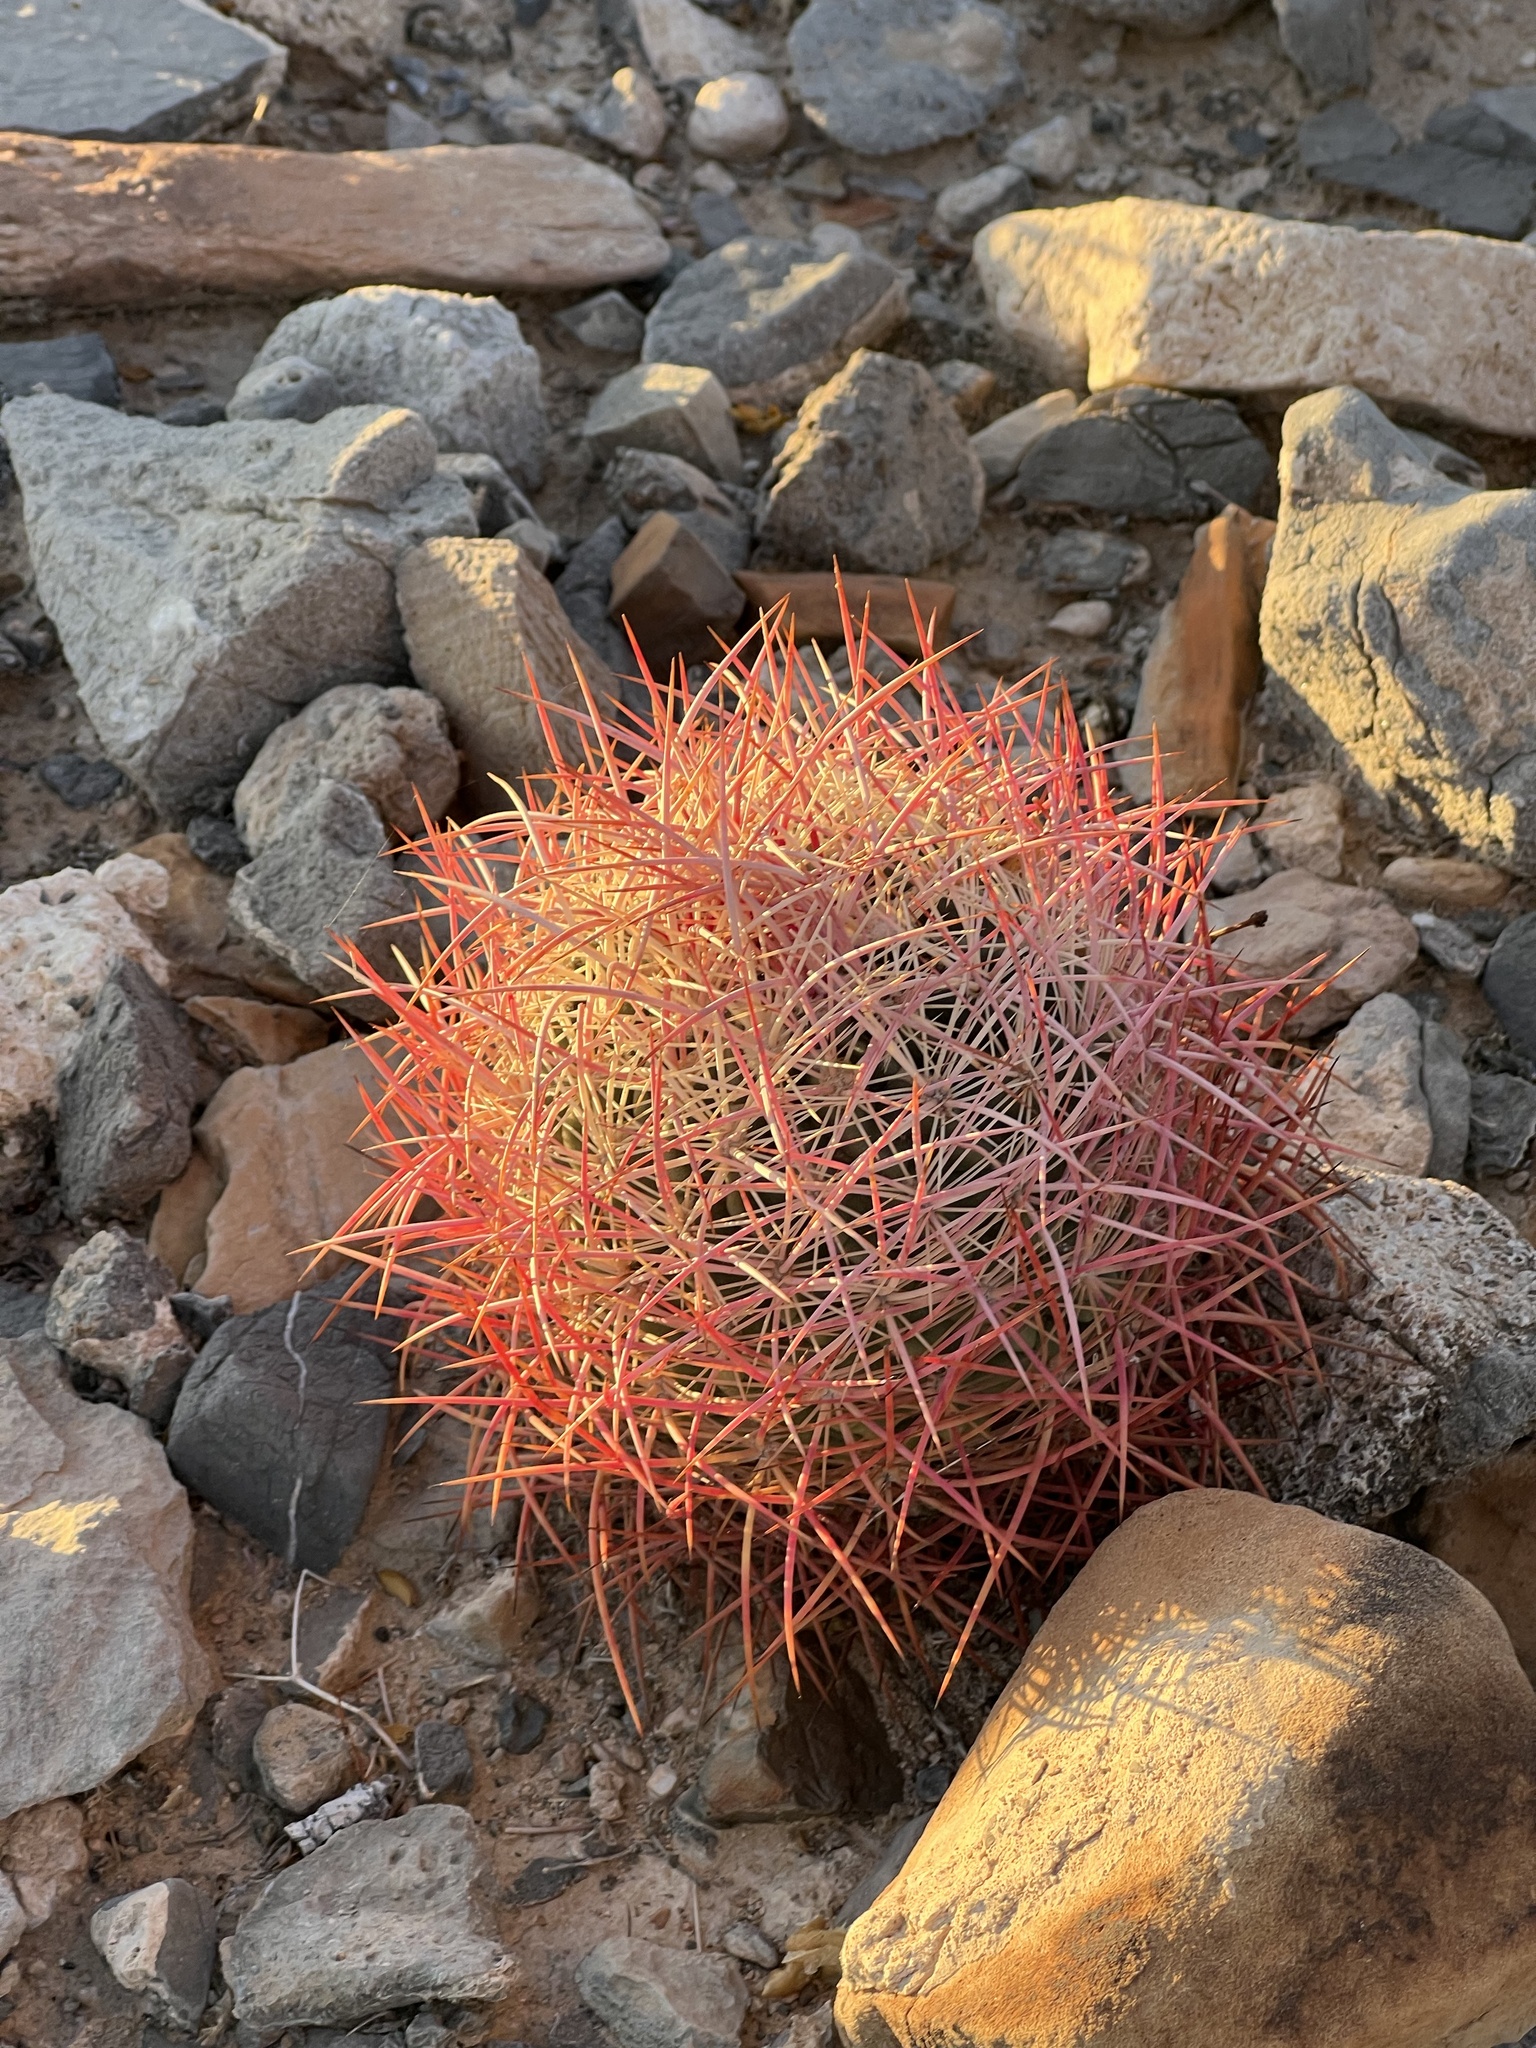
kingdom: Plantae
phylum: Tracheophyta
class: Magnoliopsida
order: Caryophyllales
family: Cactaceae
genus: Ferocactus
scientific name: Ferocactus cylindraceus
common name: California barrel cactus
